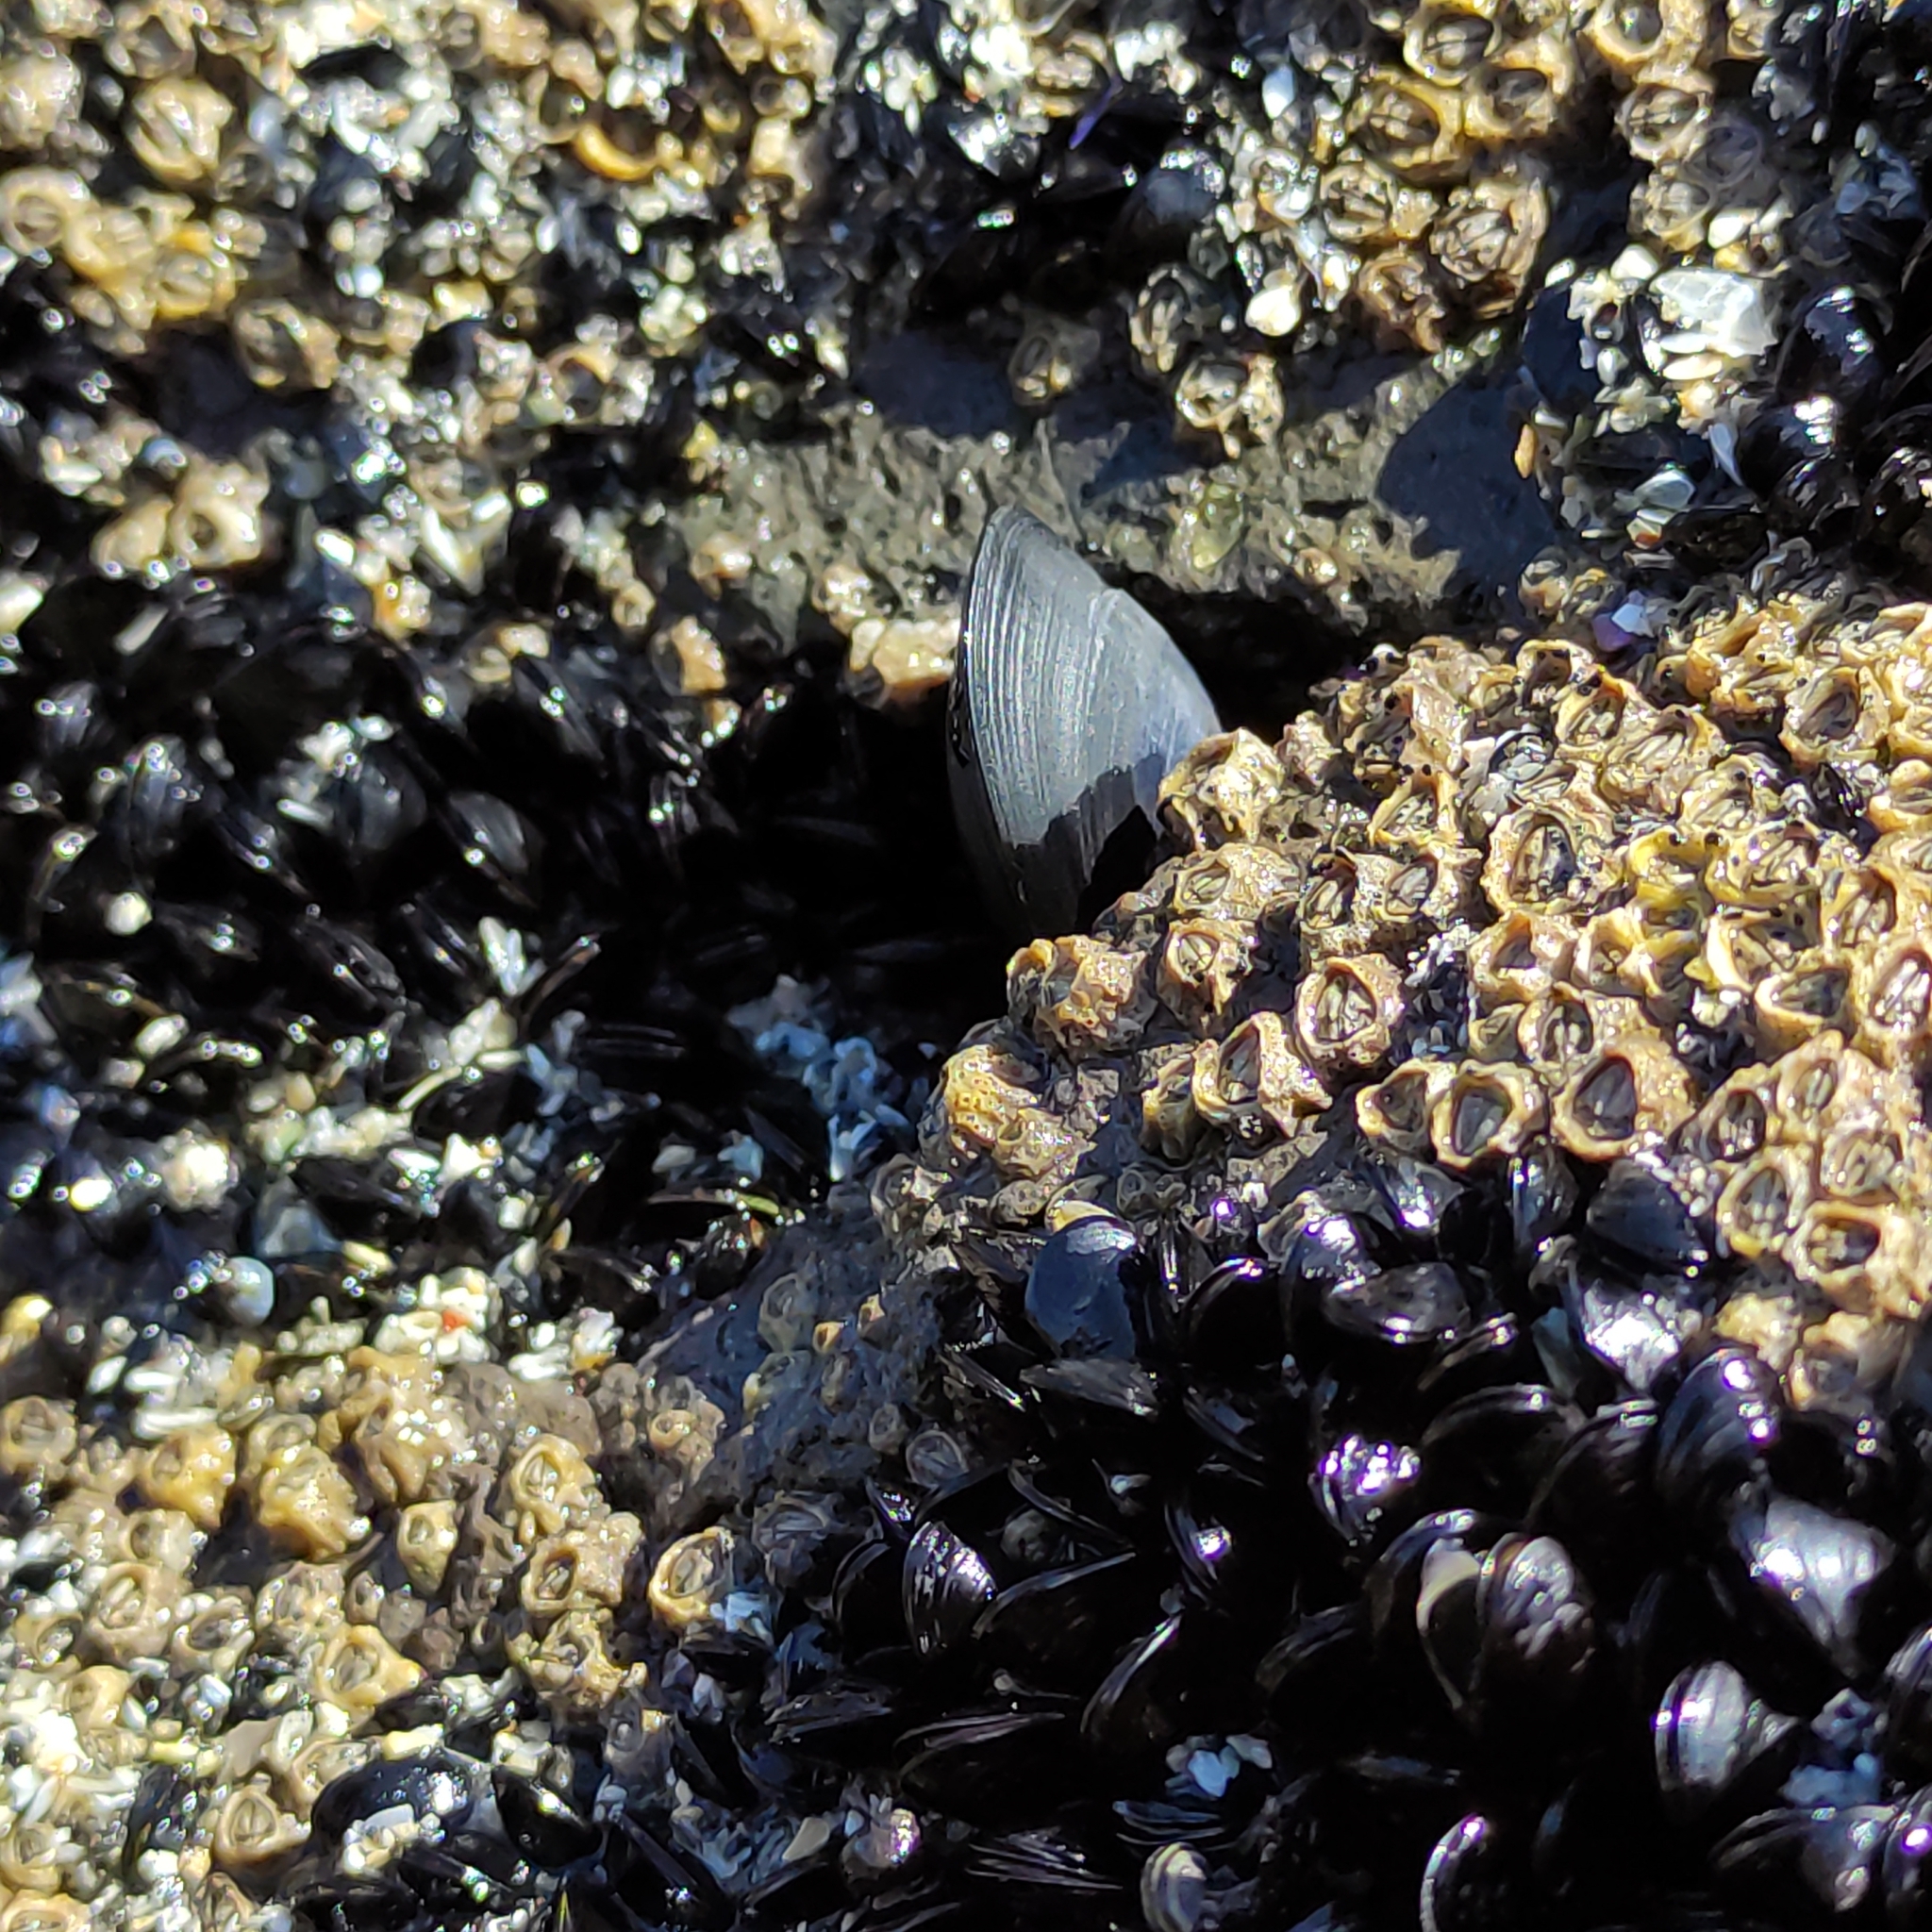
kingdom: Animalia
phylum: Mollusca
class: Bivalvia
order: Mytilida
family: Mytilidae
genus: Mytilus
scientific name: Mytilus planulatus
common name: Australian mussel
